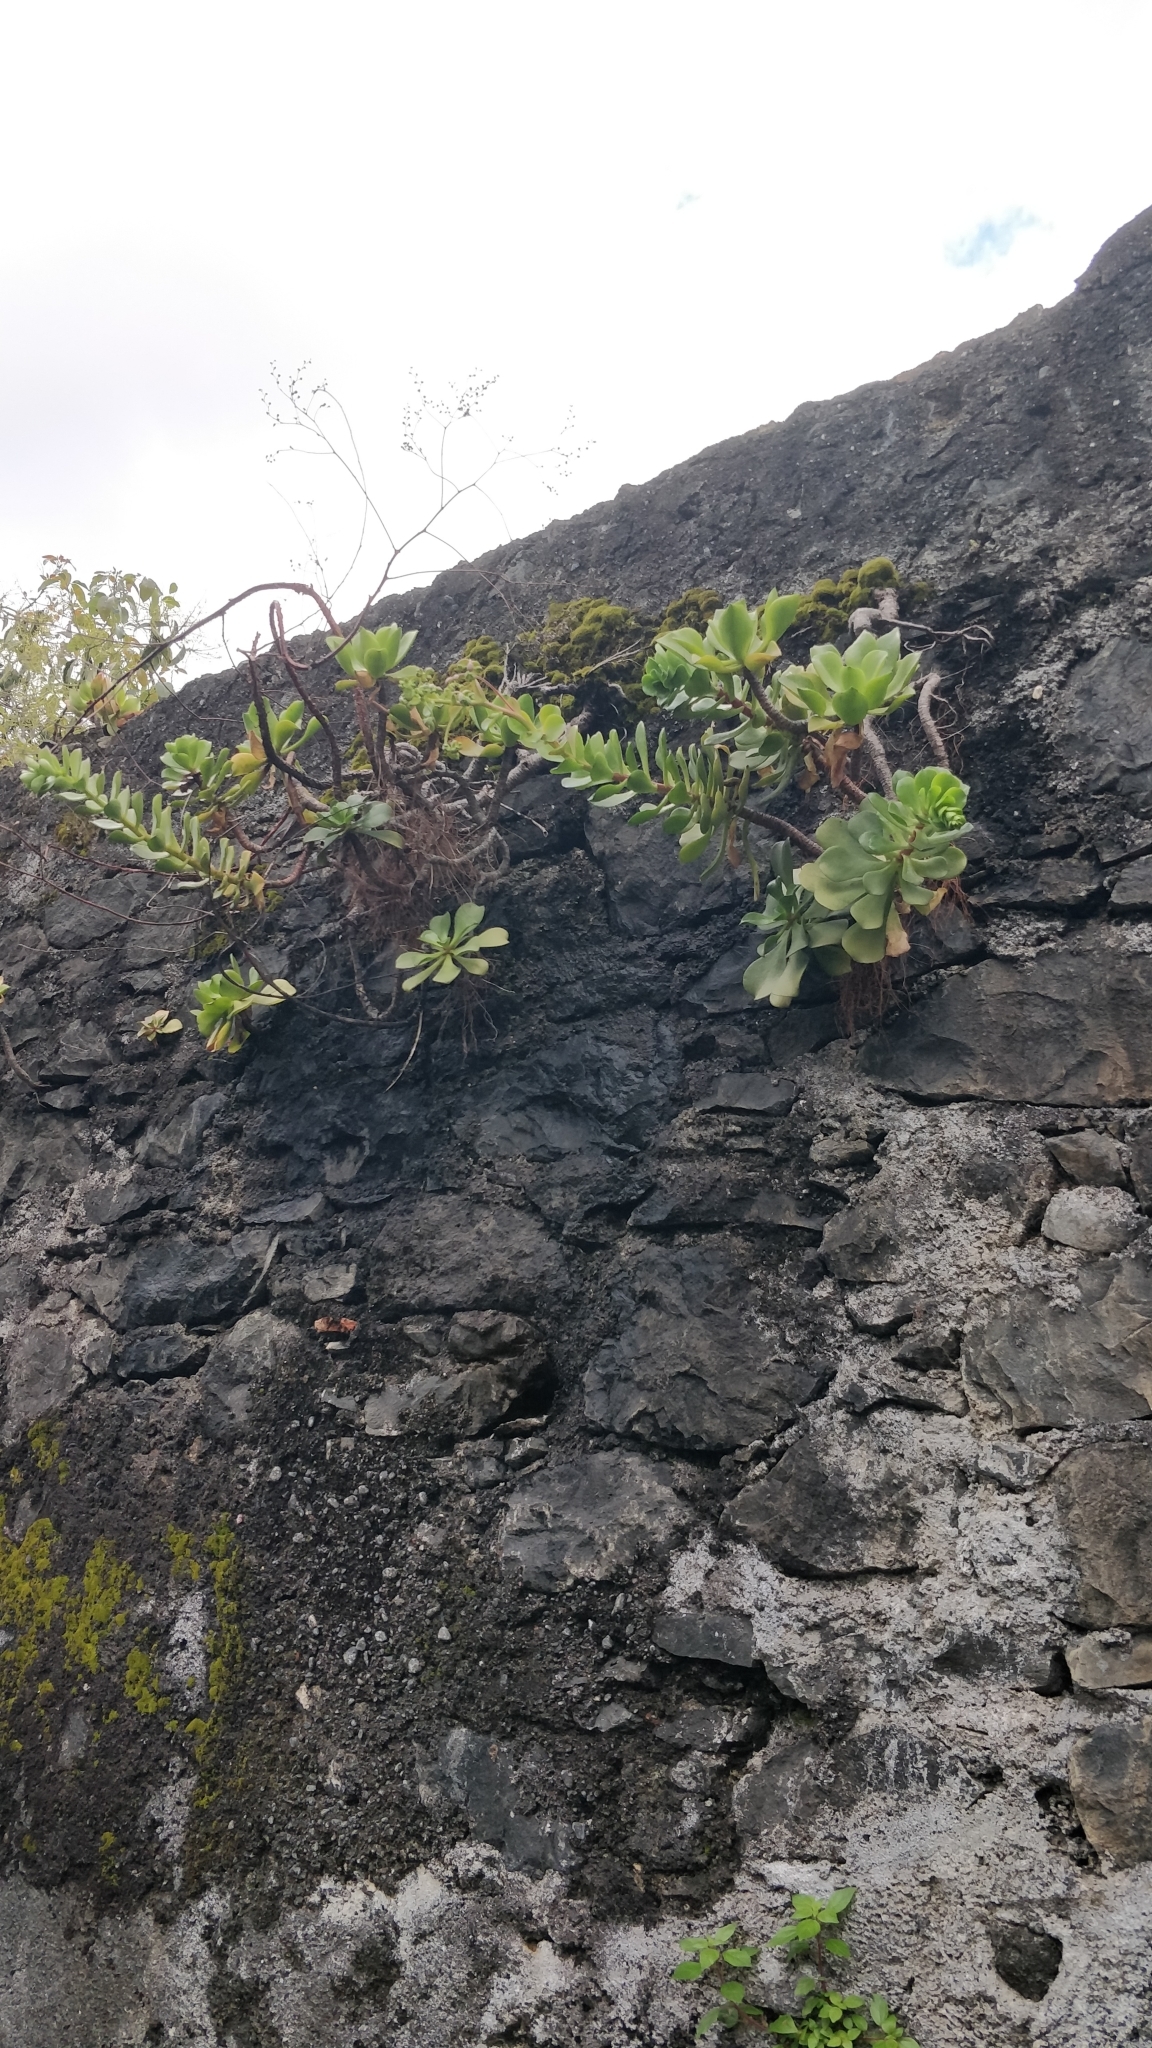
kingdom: Plantae
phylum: Tracheophyta
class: Magnoliopsida
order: Saxifragales
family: Crassulaceae
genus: Aeonium
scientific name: Aeonium glutinosum
